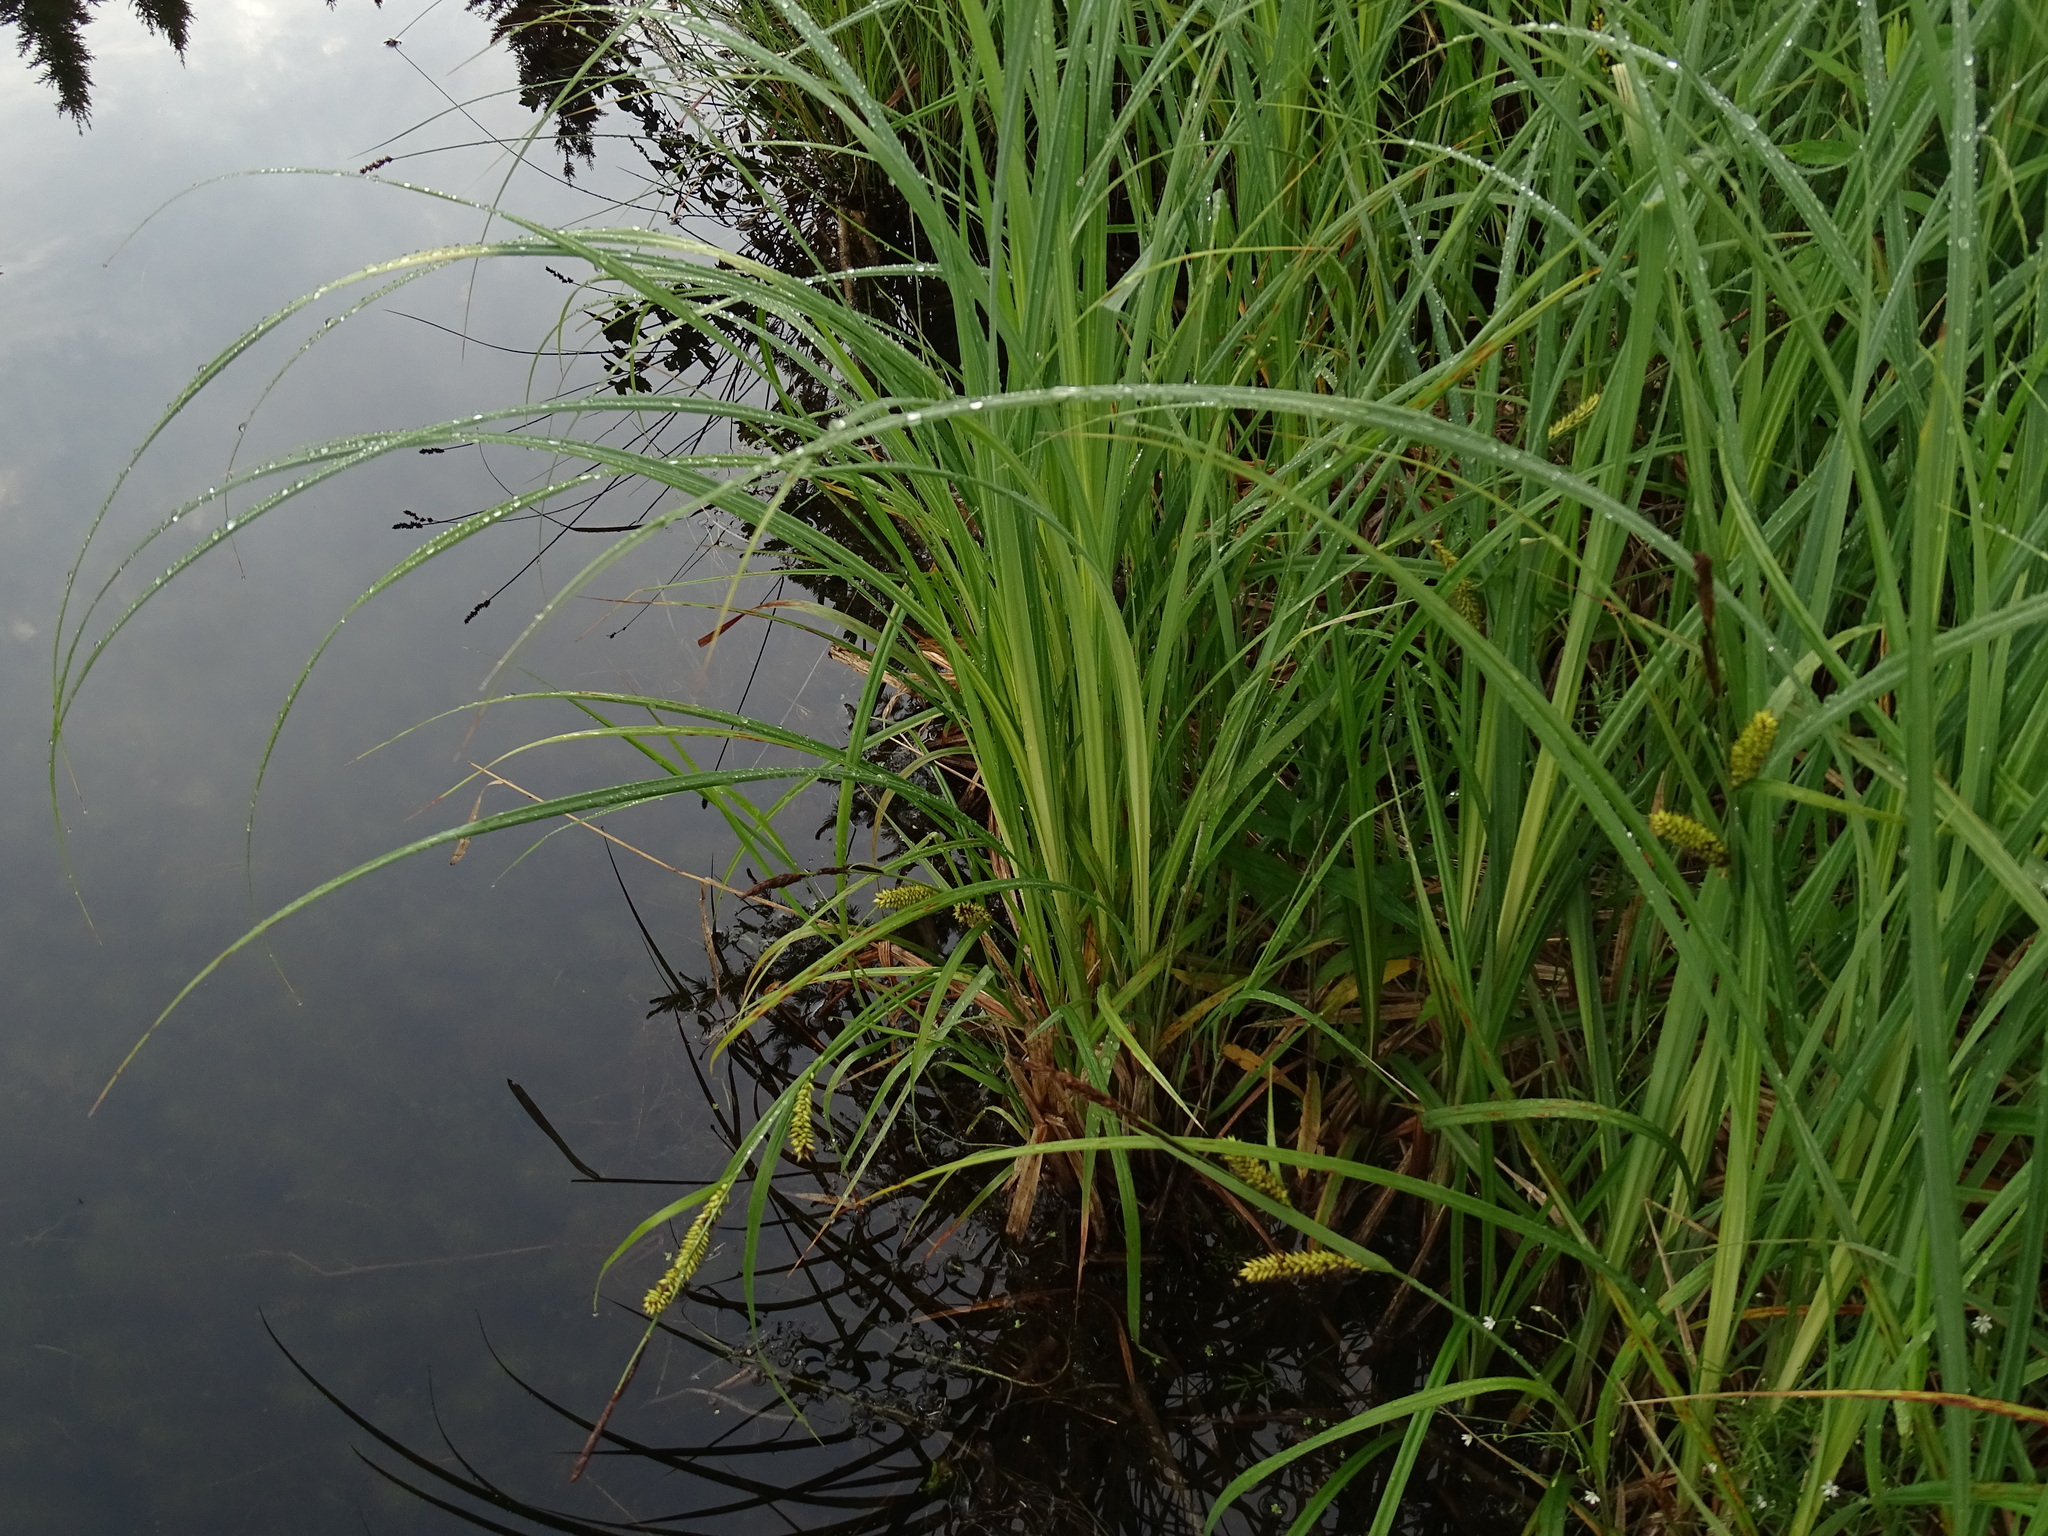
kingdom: Plantae
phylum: Tracheophyta
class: Liliopsida
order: Poales
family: Cyperaceae
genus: Carex
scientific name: Carex lacustris
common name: Common lake sedge
